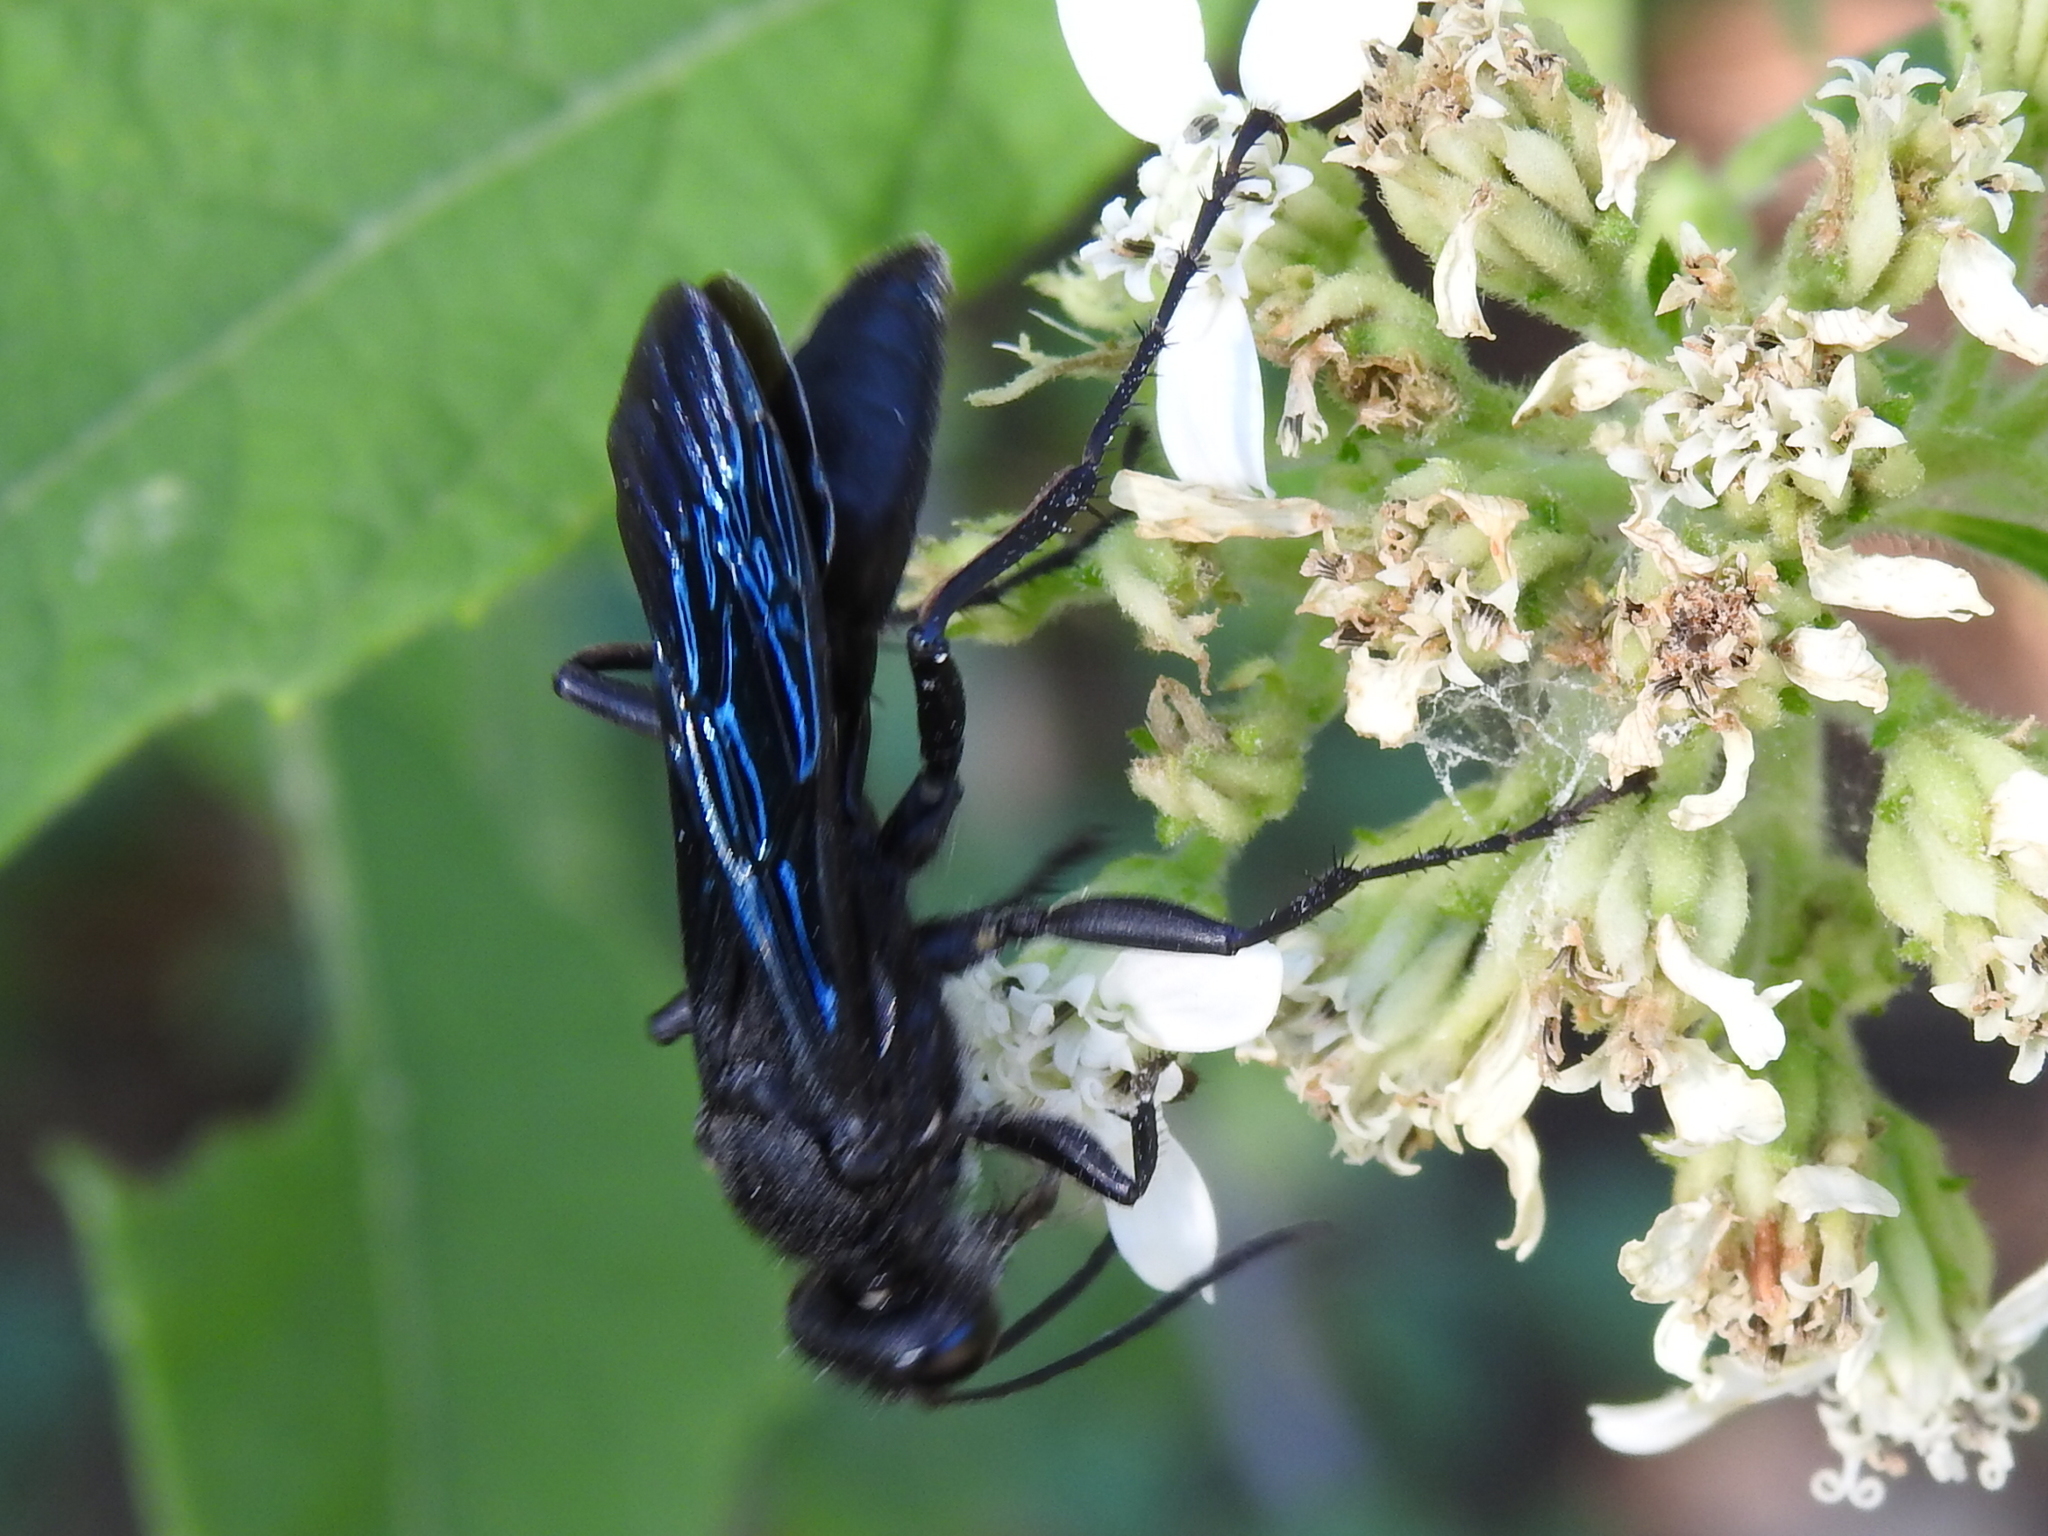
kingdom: Animalia
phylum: Arthropoda
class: Insecta
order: Hymenoptera
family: Sphecidae
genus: Sphex
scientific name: Sphex pensylvanicus
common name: Great black digger wasp
